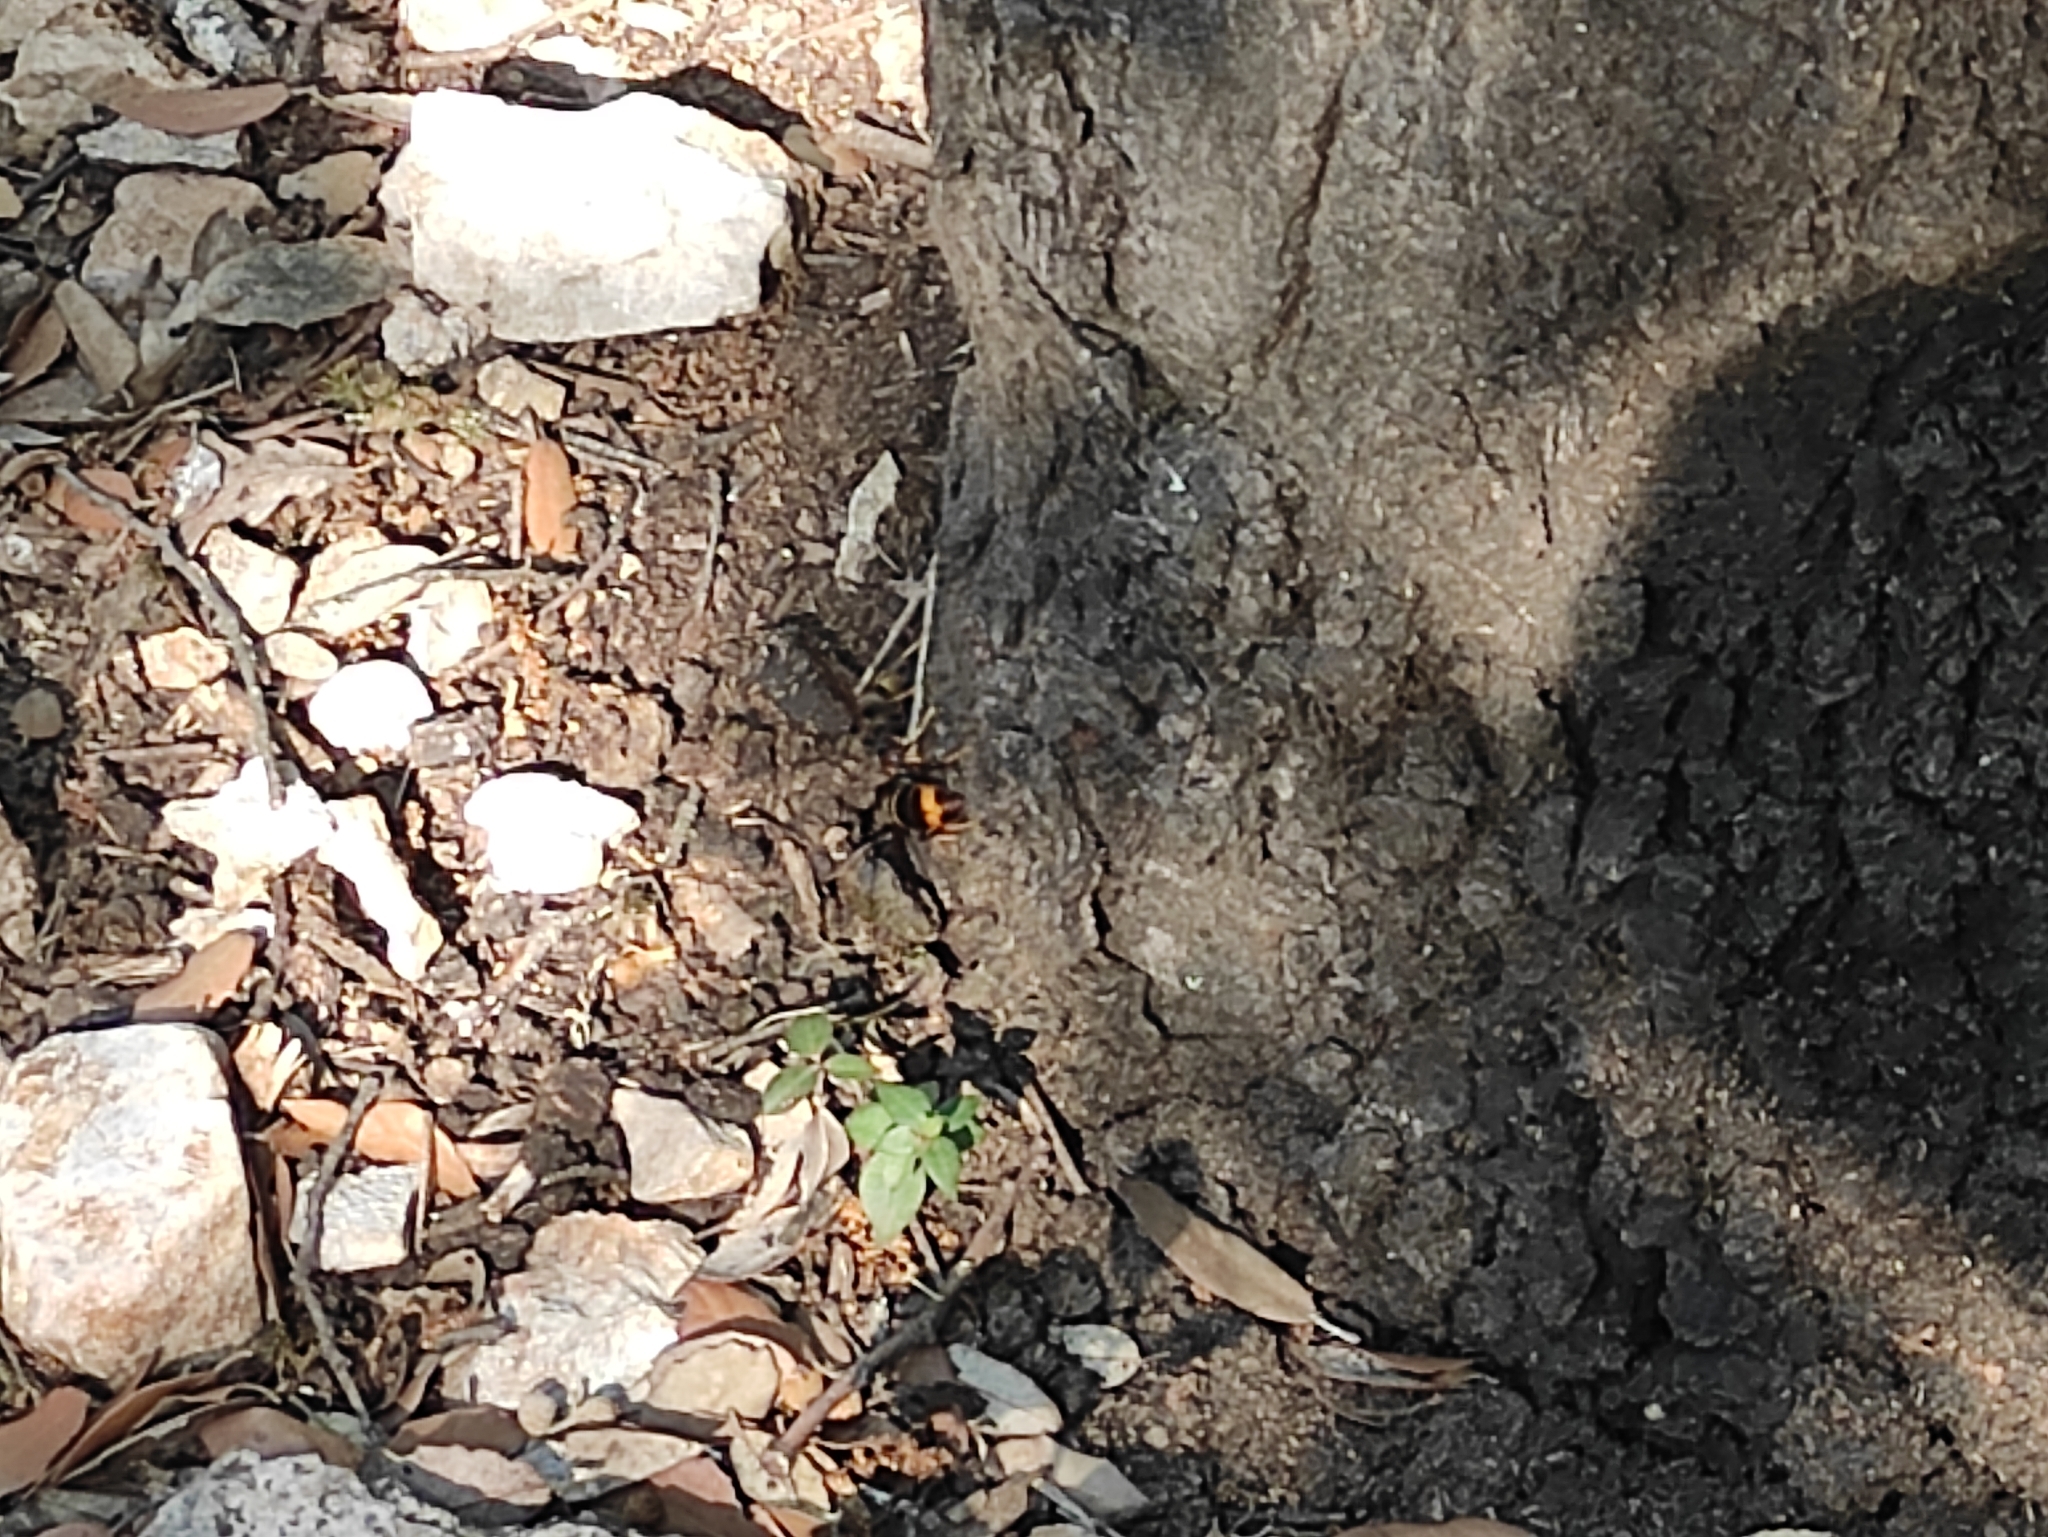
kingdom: Animalia
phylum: Arthropoda
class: Insecta
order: Hymenoptera
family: Vespidae
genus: Vespa
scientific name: Vespa velutina
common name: Asian hornet
